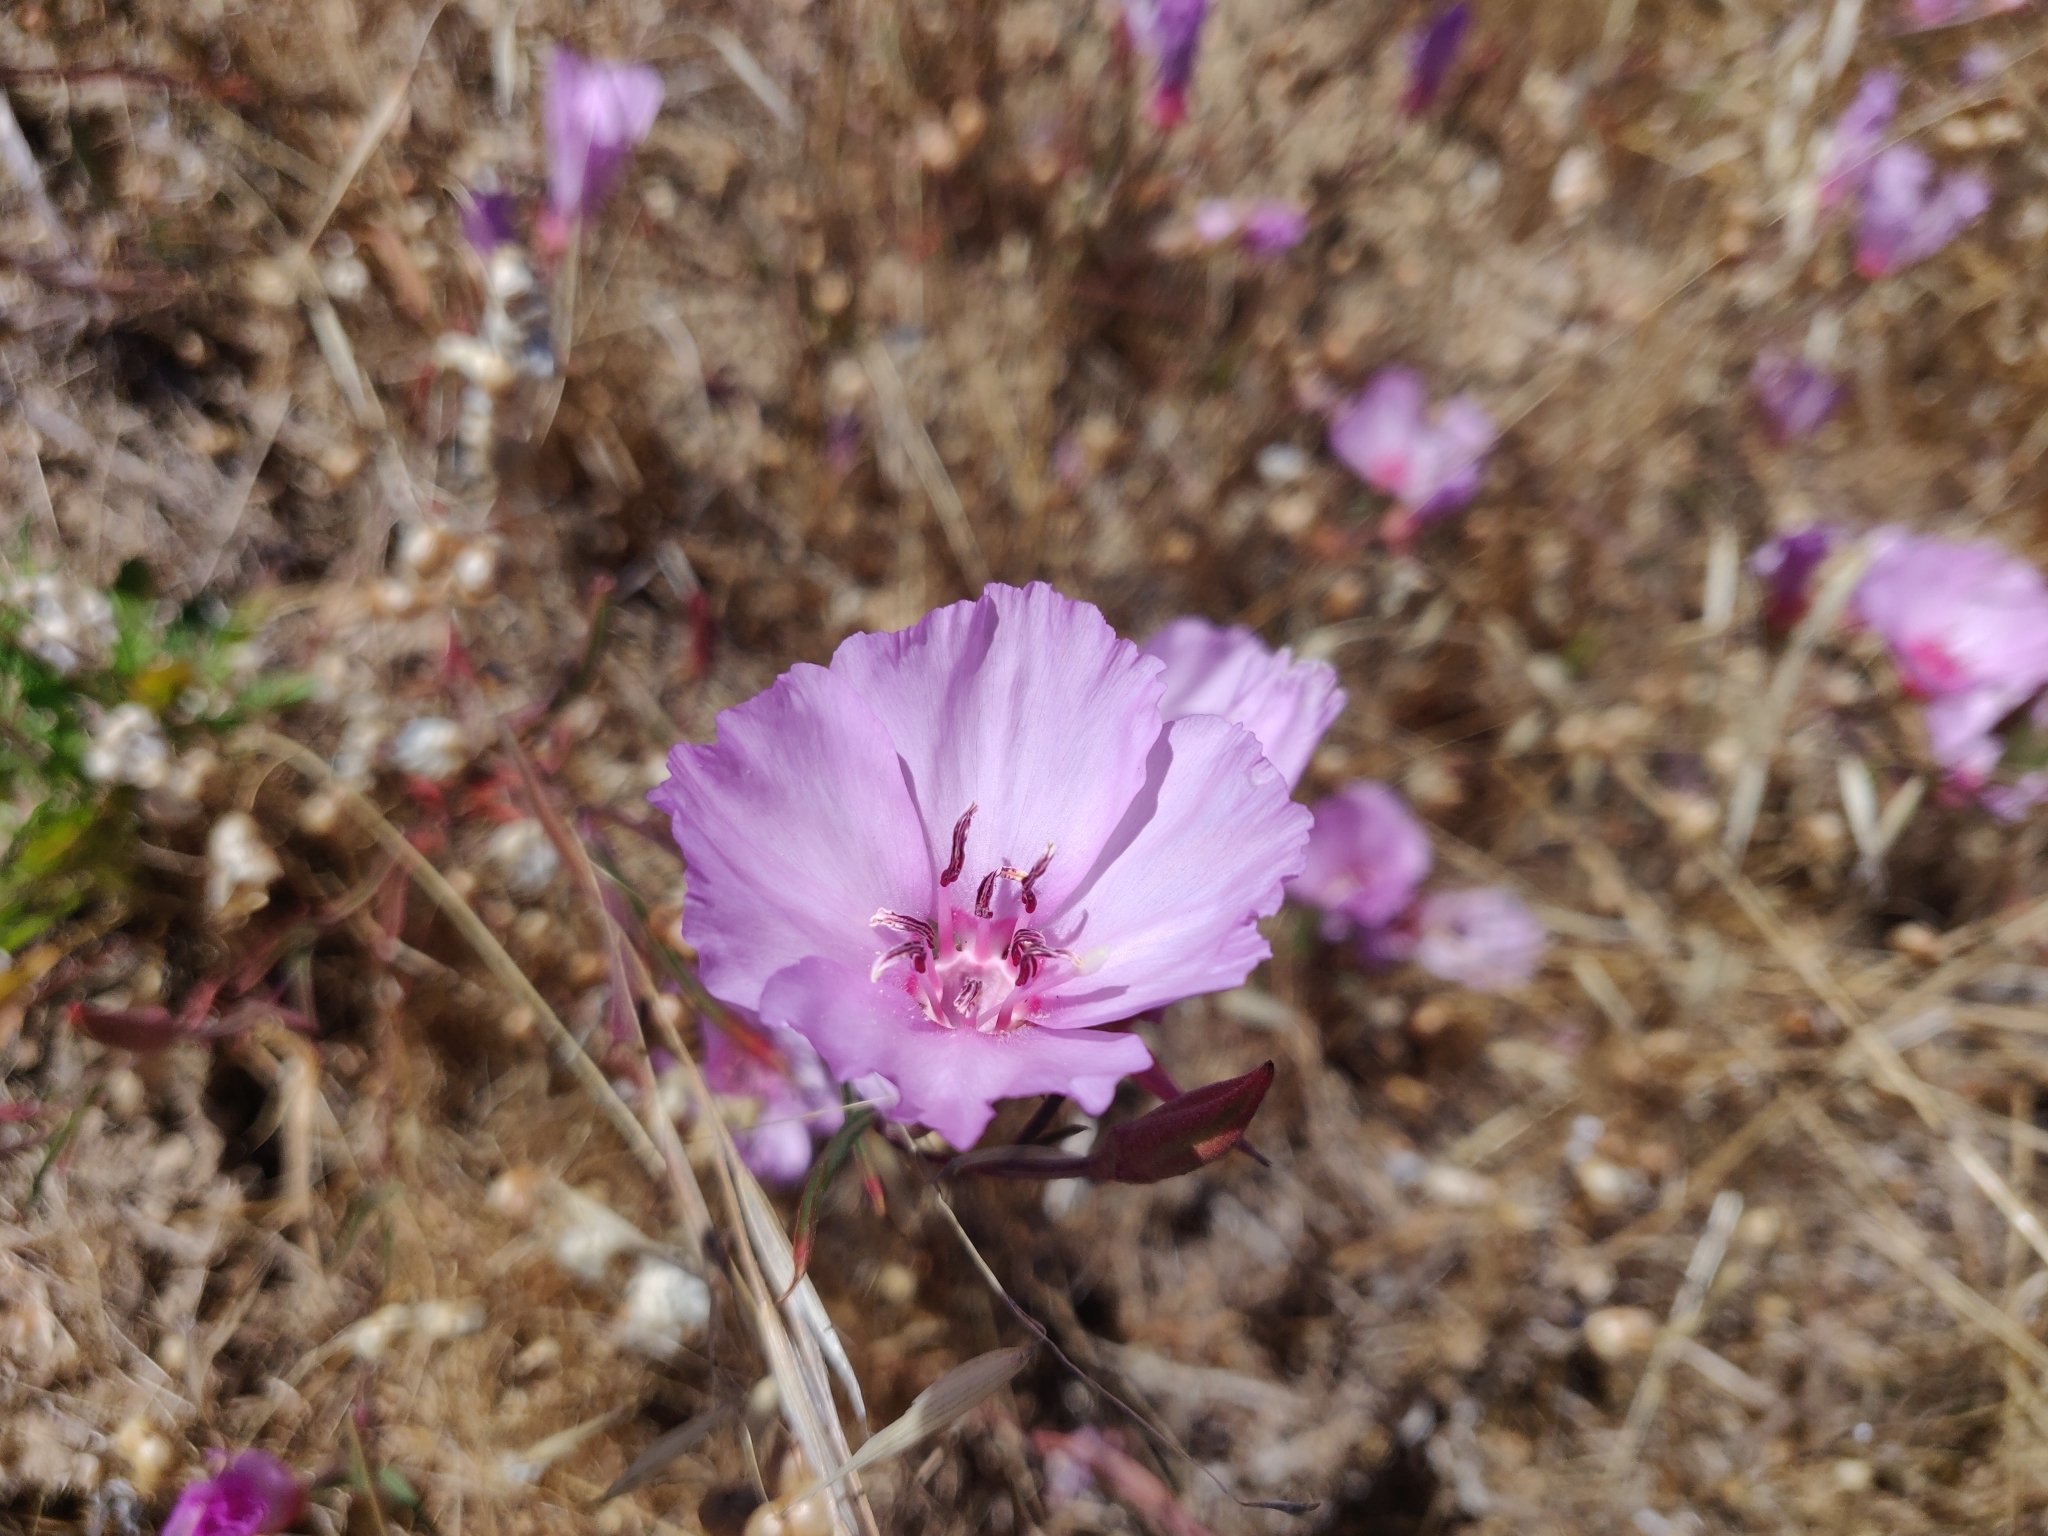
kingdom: Plantae
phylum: Tracheophyta
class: Magnoliopsida
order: Myrtales
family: Onagraceae
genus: Clarkia
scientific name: Clarkia rubicunda
